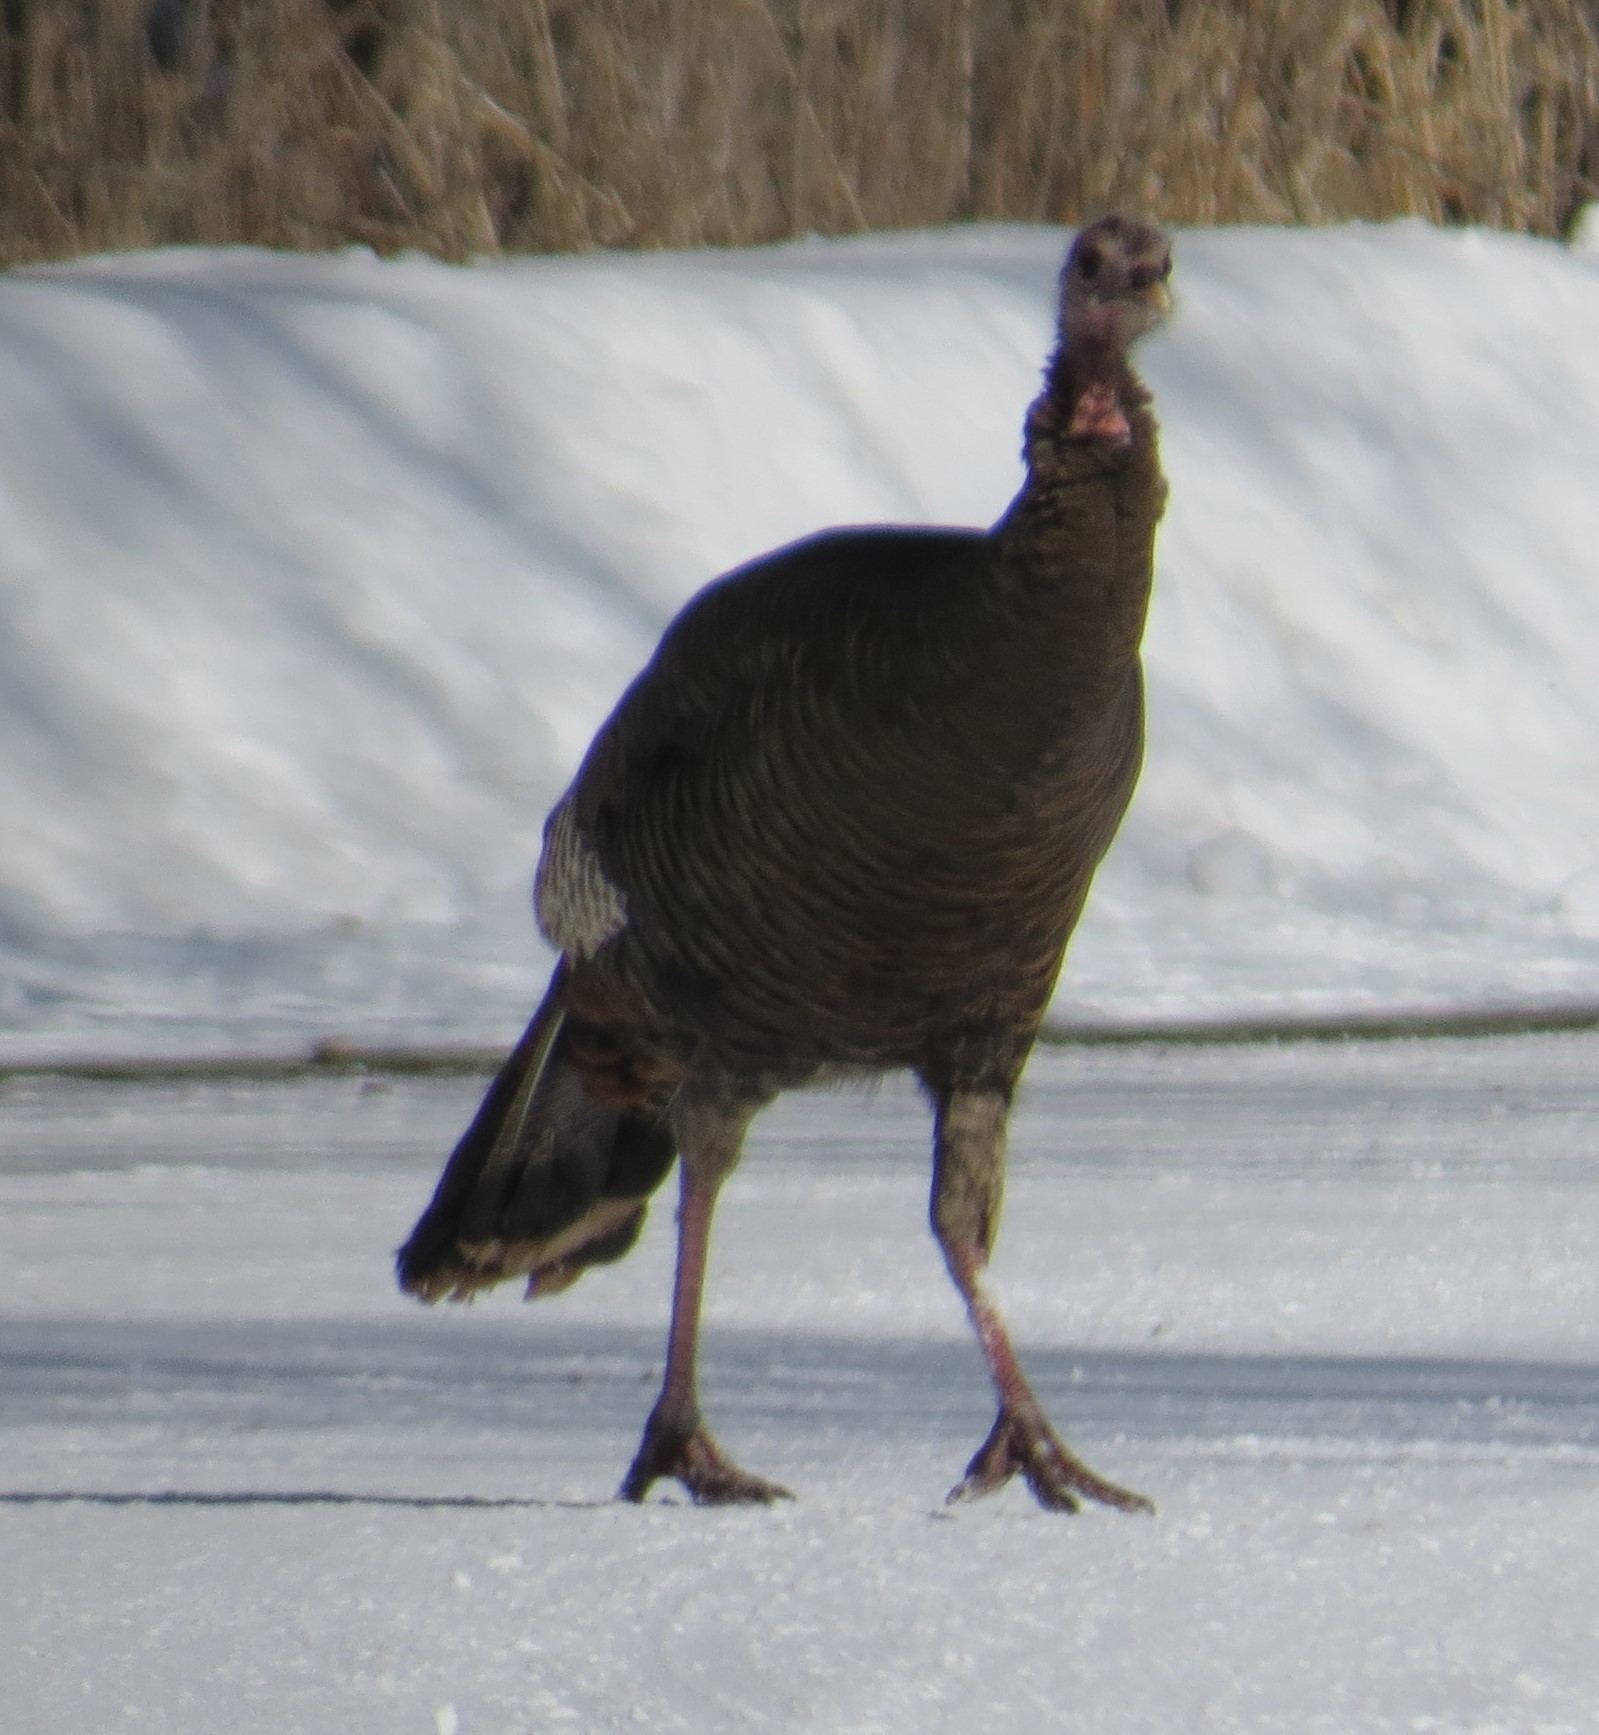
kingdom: Animalia
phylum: Chordata
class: Aves
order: Galliformes
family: Phasianidae
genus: Meleagris
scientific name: Meleagris gallopavo
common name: Wild turkey
